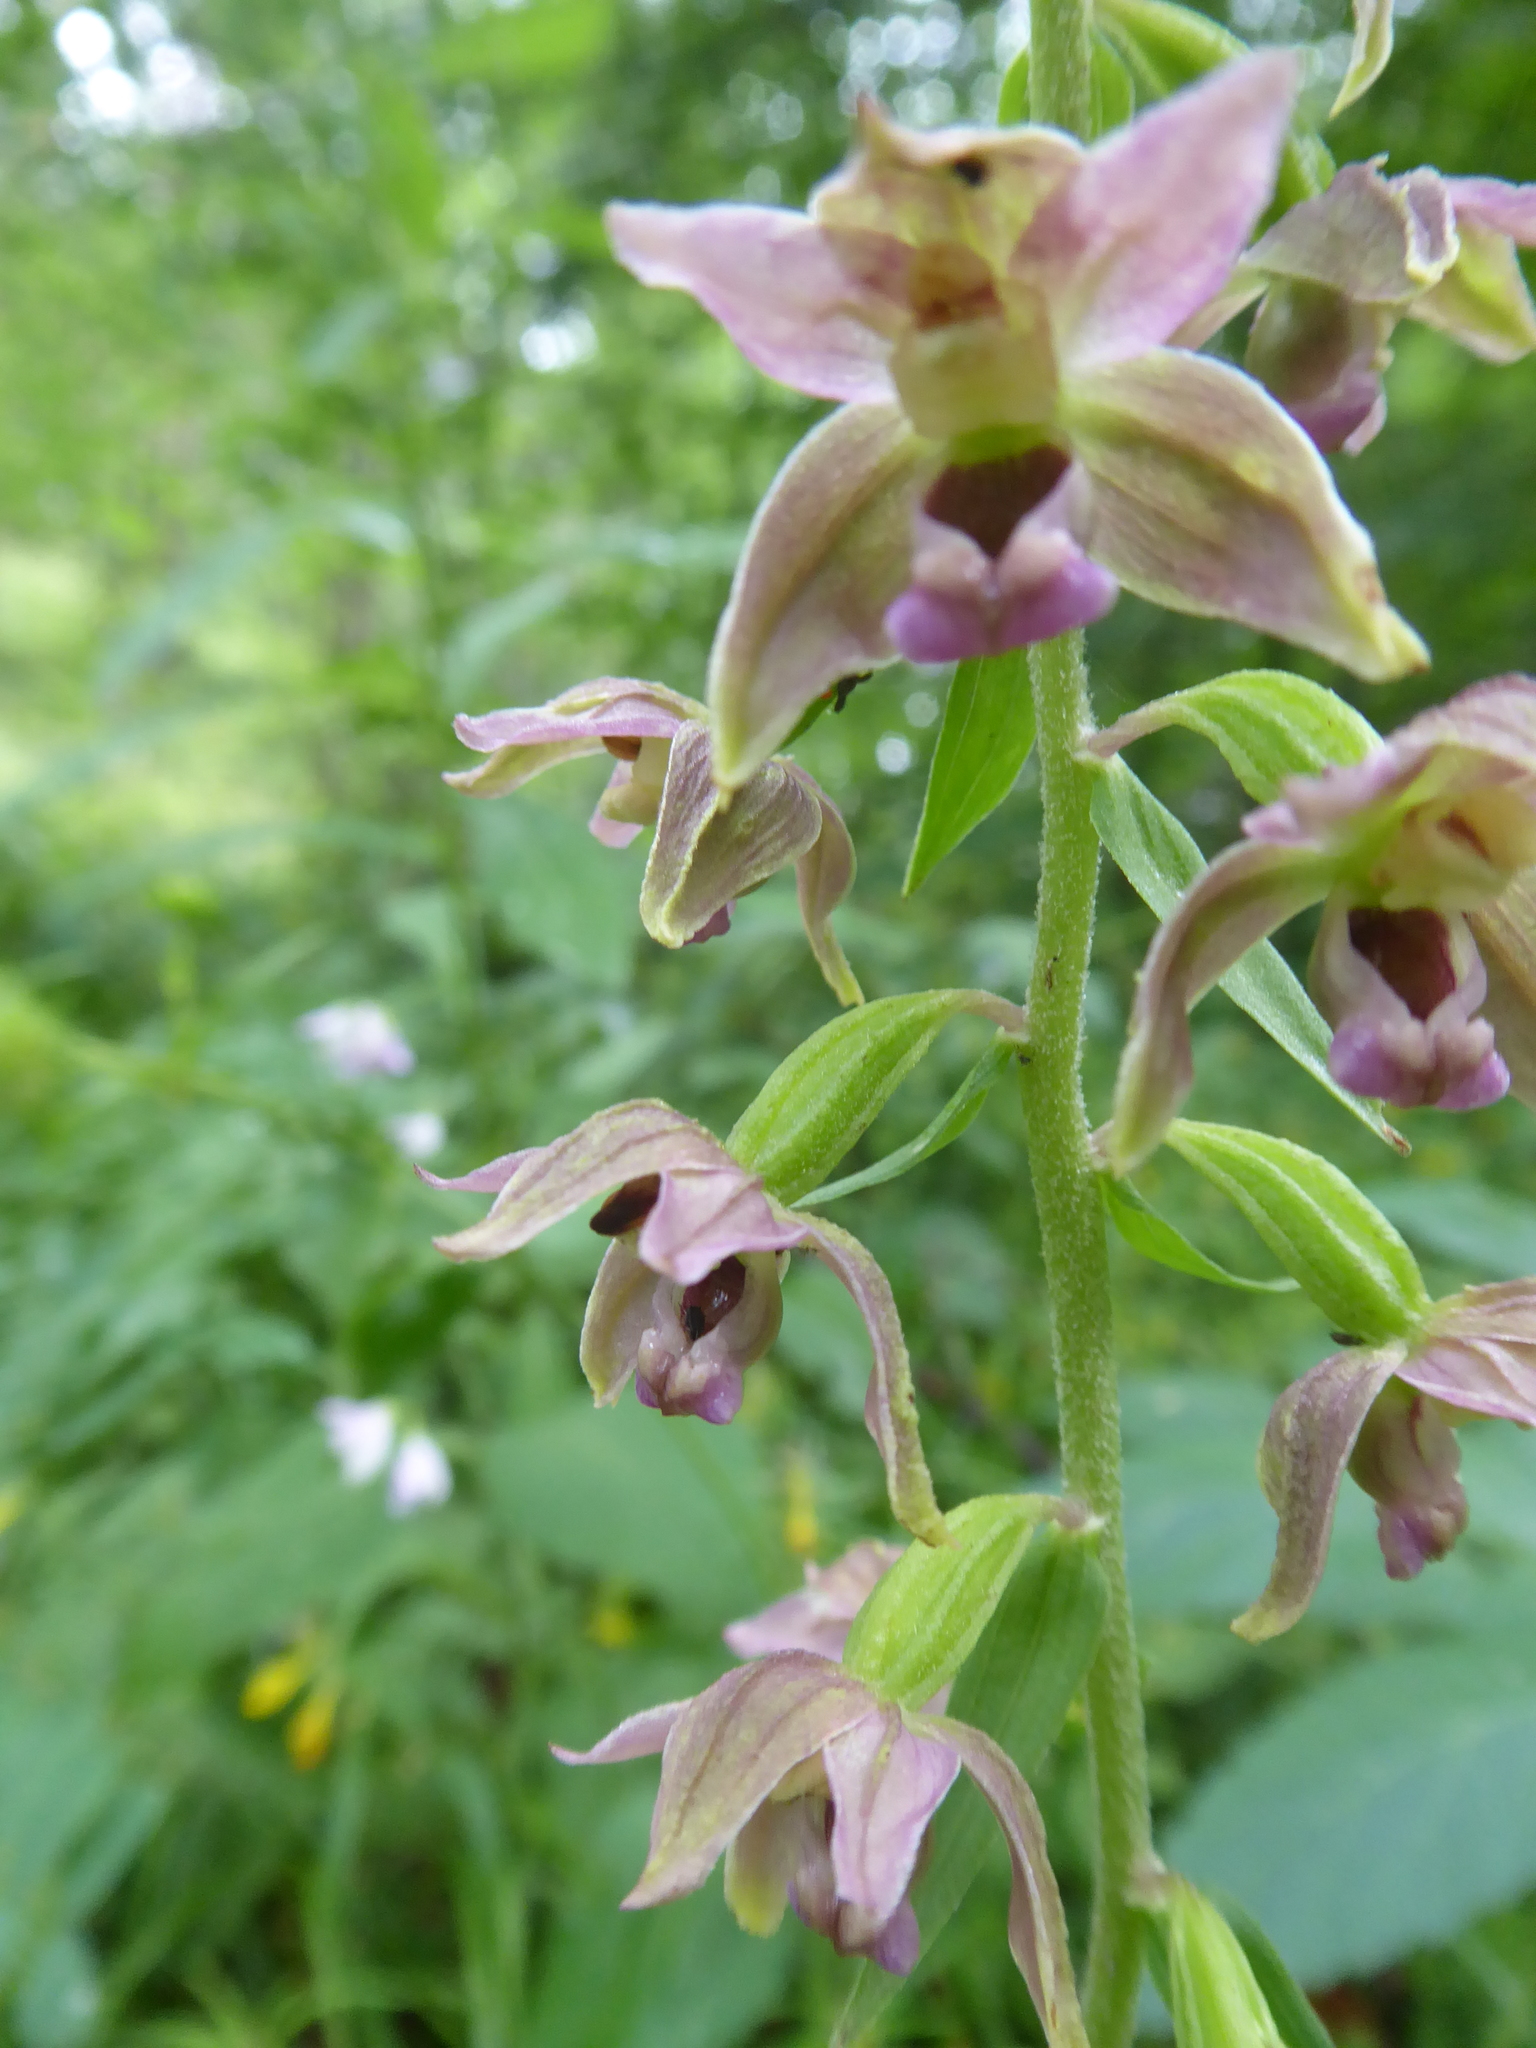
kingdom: Plantae
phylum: Tracheophyta
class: Liliopsida
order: Asparagales
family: Orchidaceae
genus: Epipactis
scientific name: Epipactis helleborine
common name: Broad-leaved helleborine
